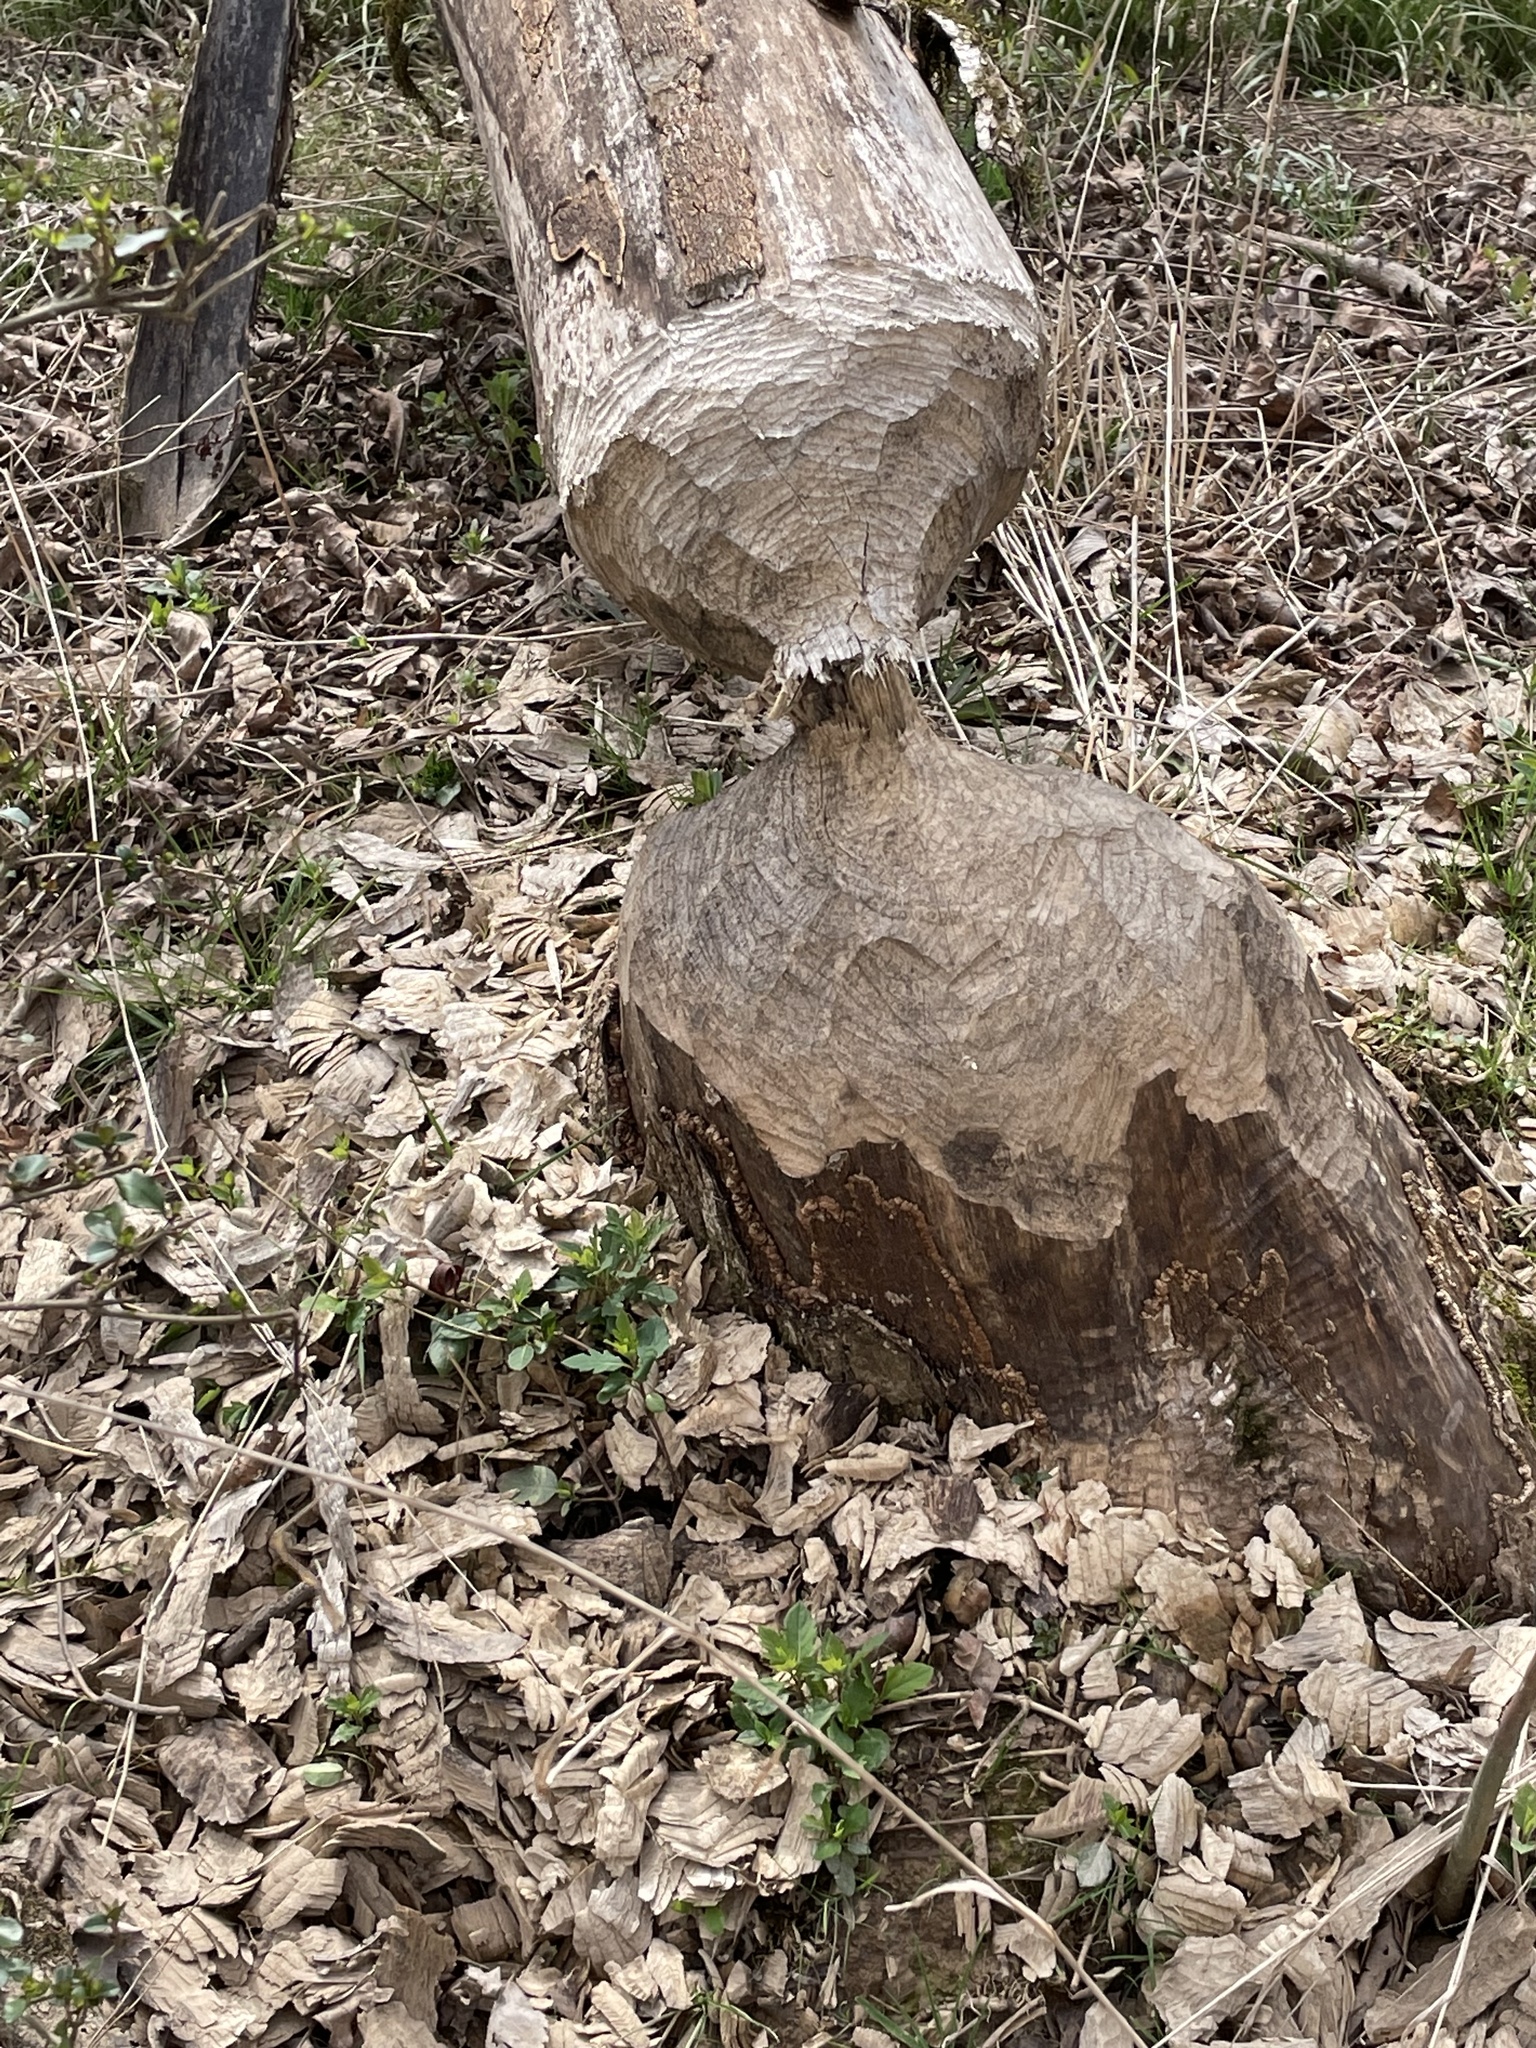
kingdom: Animalia
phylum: Chordata
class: Mammalia
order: Rodentia
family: Castoridae
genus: Castor
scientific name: Castor canadensis
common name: American beaver
